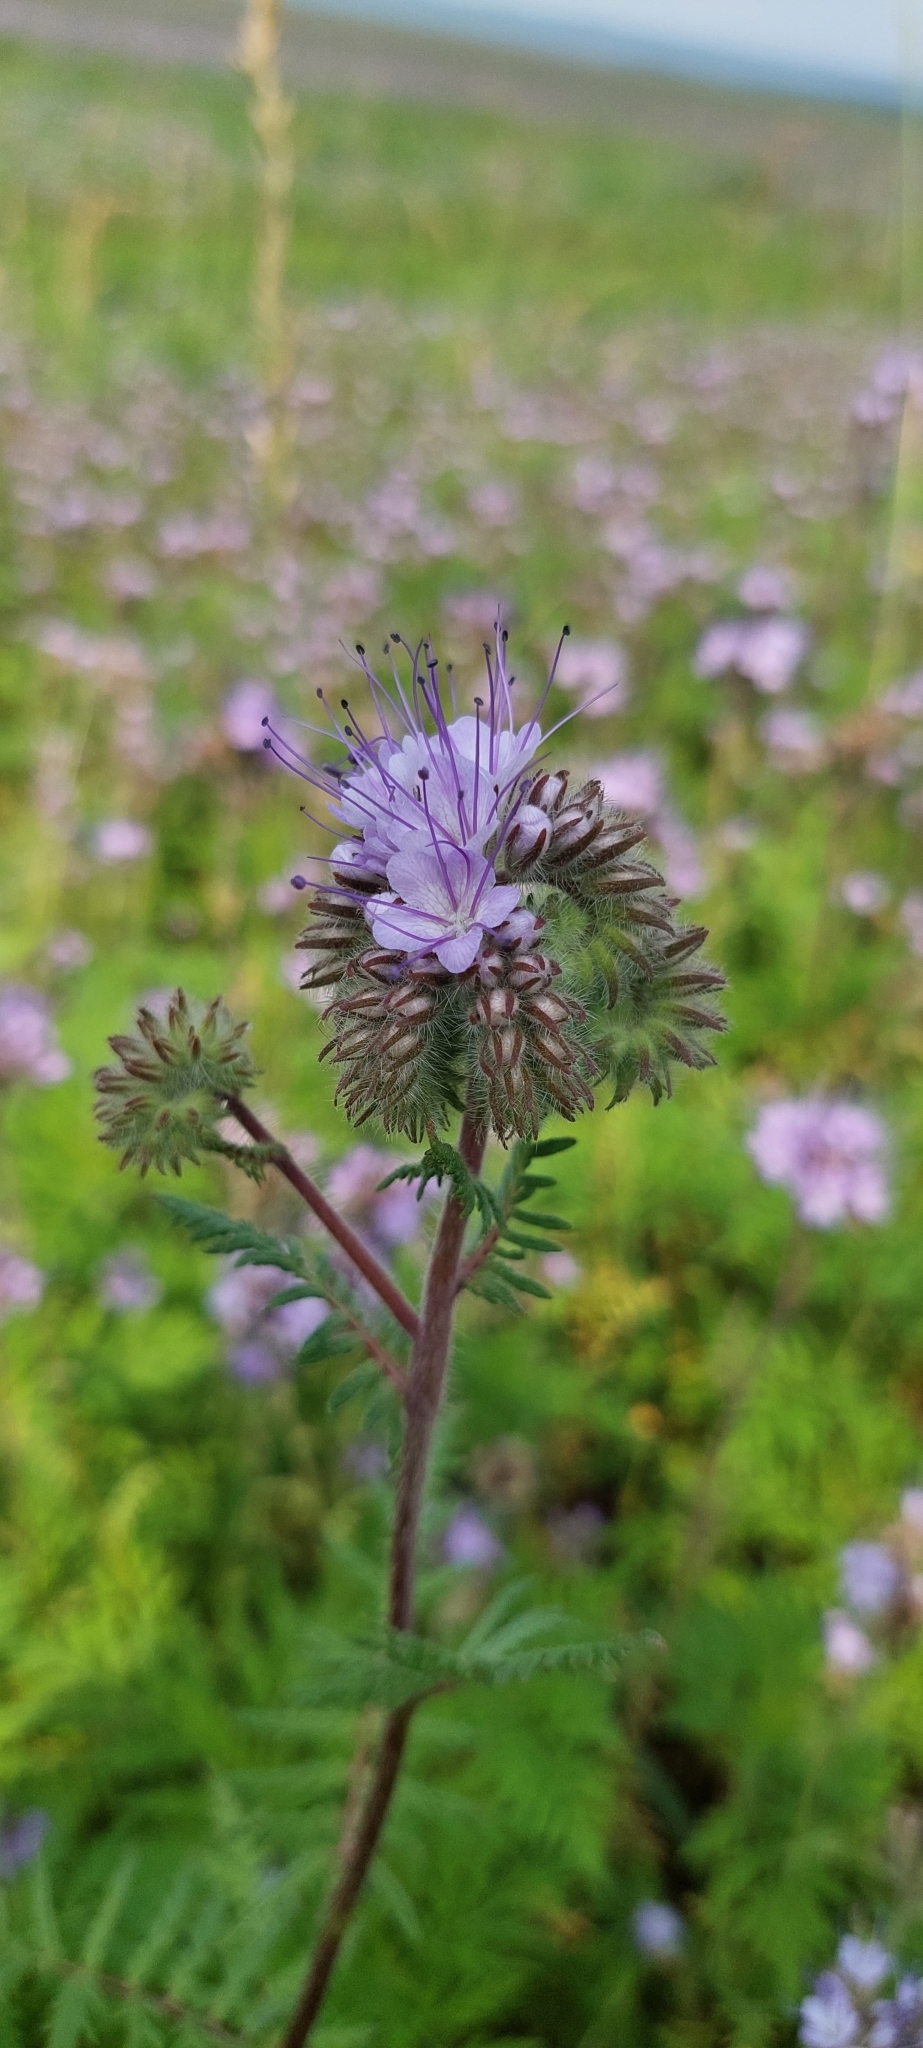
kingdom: Plantae
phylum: Tracheophyta
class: Magnoliopsida
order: Boraginales
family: Hydrophyllaceae
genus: Phacelia
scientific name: Phacelia tanacetifolia
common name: Phacelia
